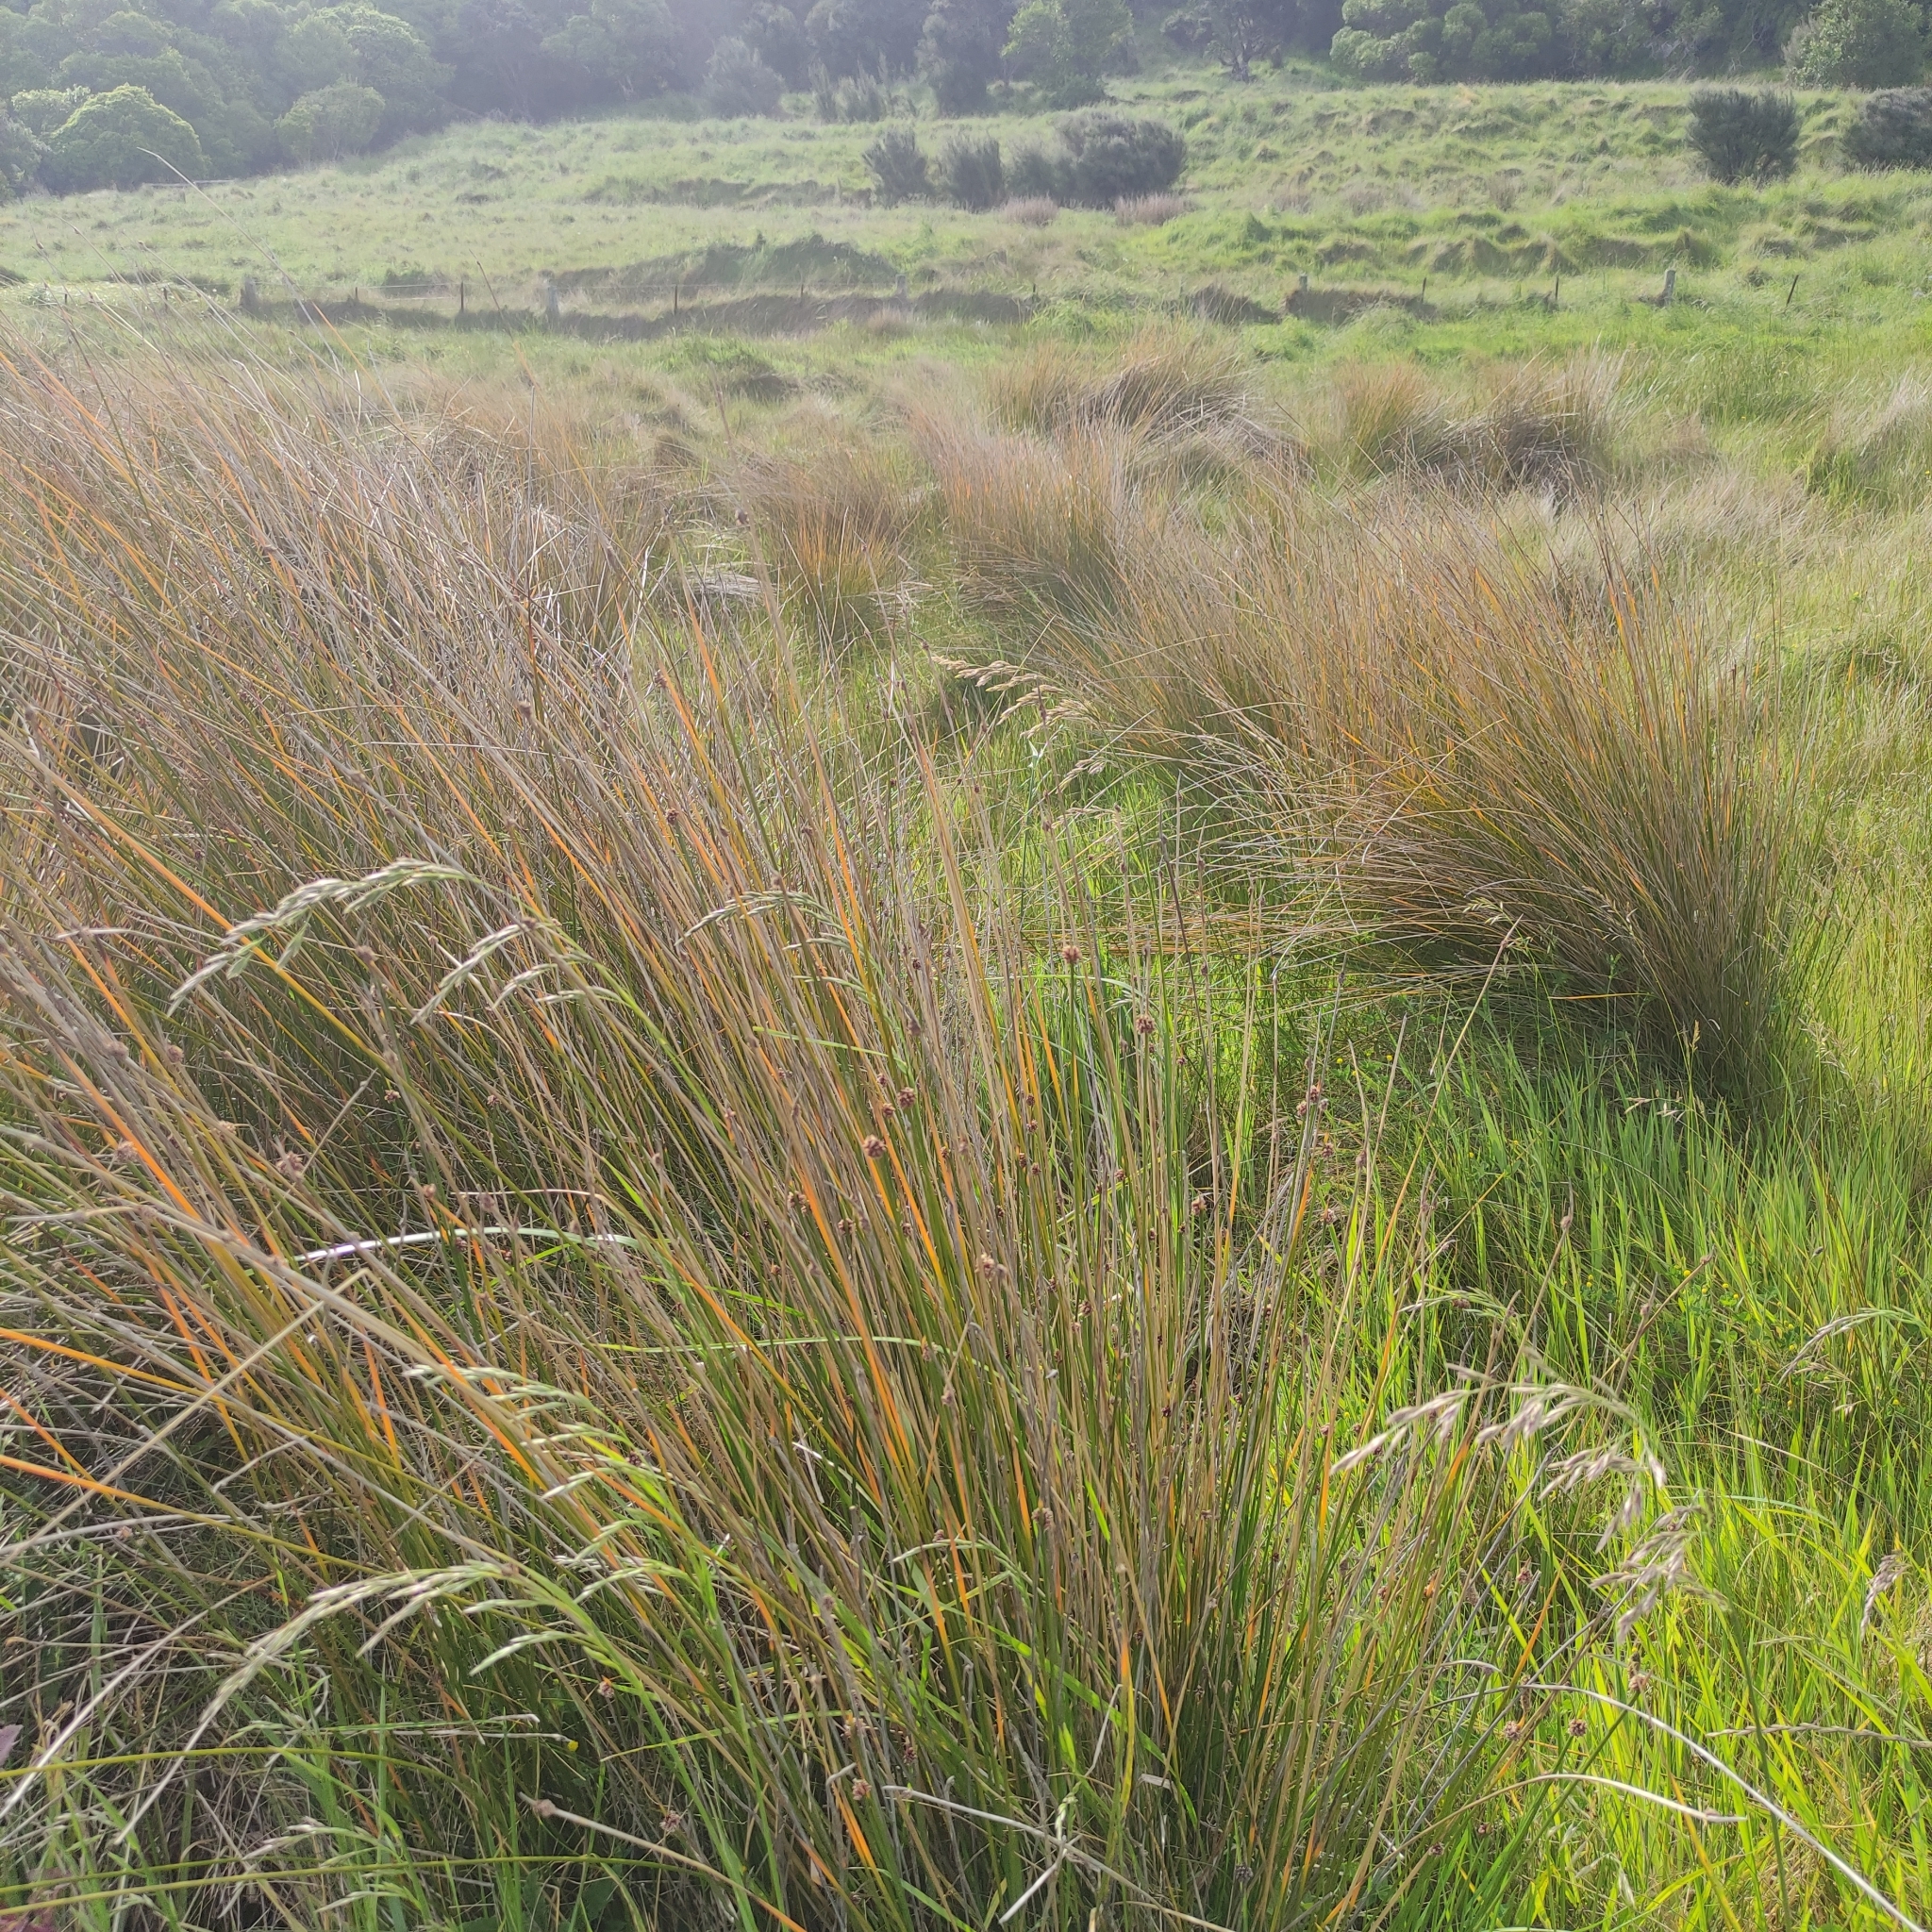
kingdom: Plantae
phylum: Tracheophyta
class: Liliopsida
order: Poales
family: Cyperaceae
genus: Ficinia
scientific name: Ficinia nodosa
